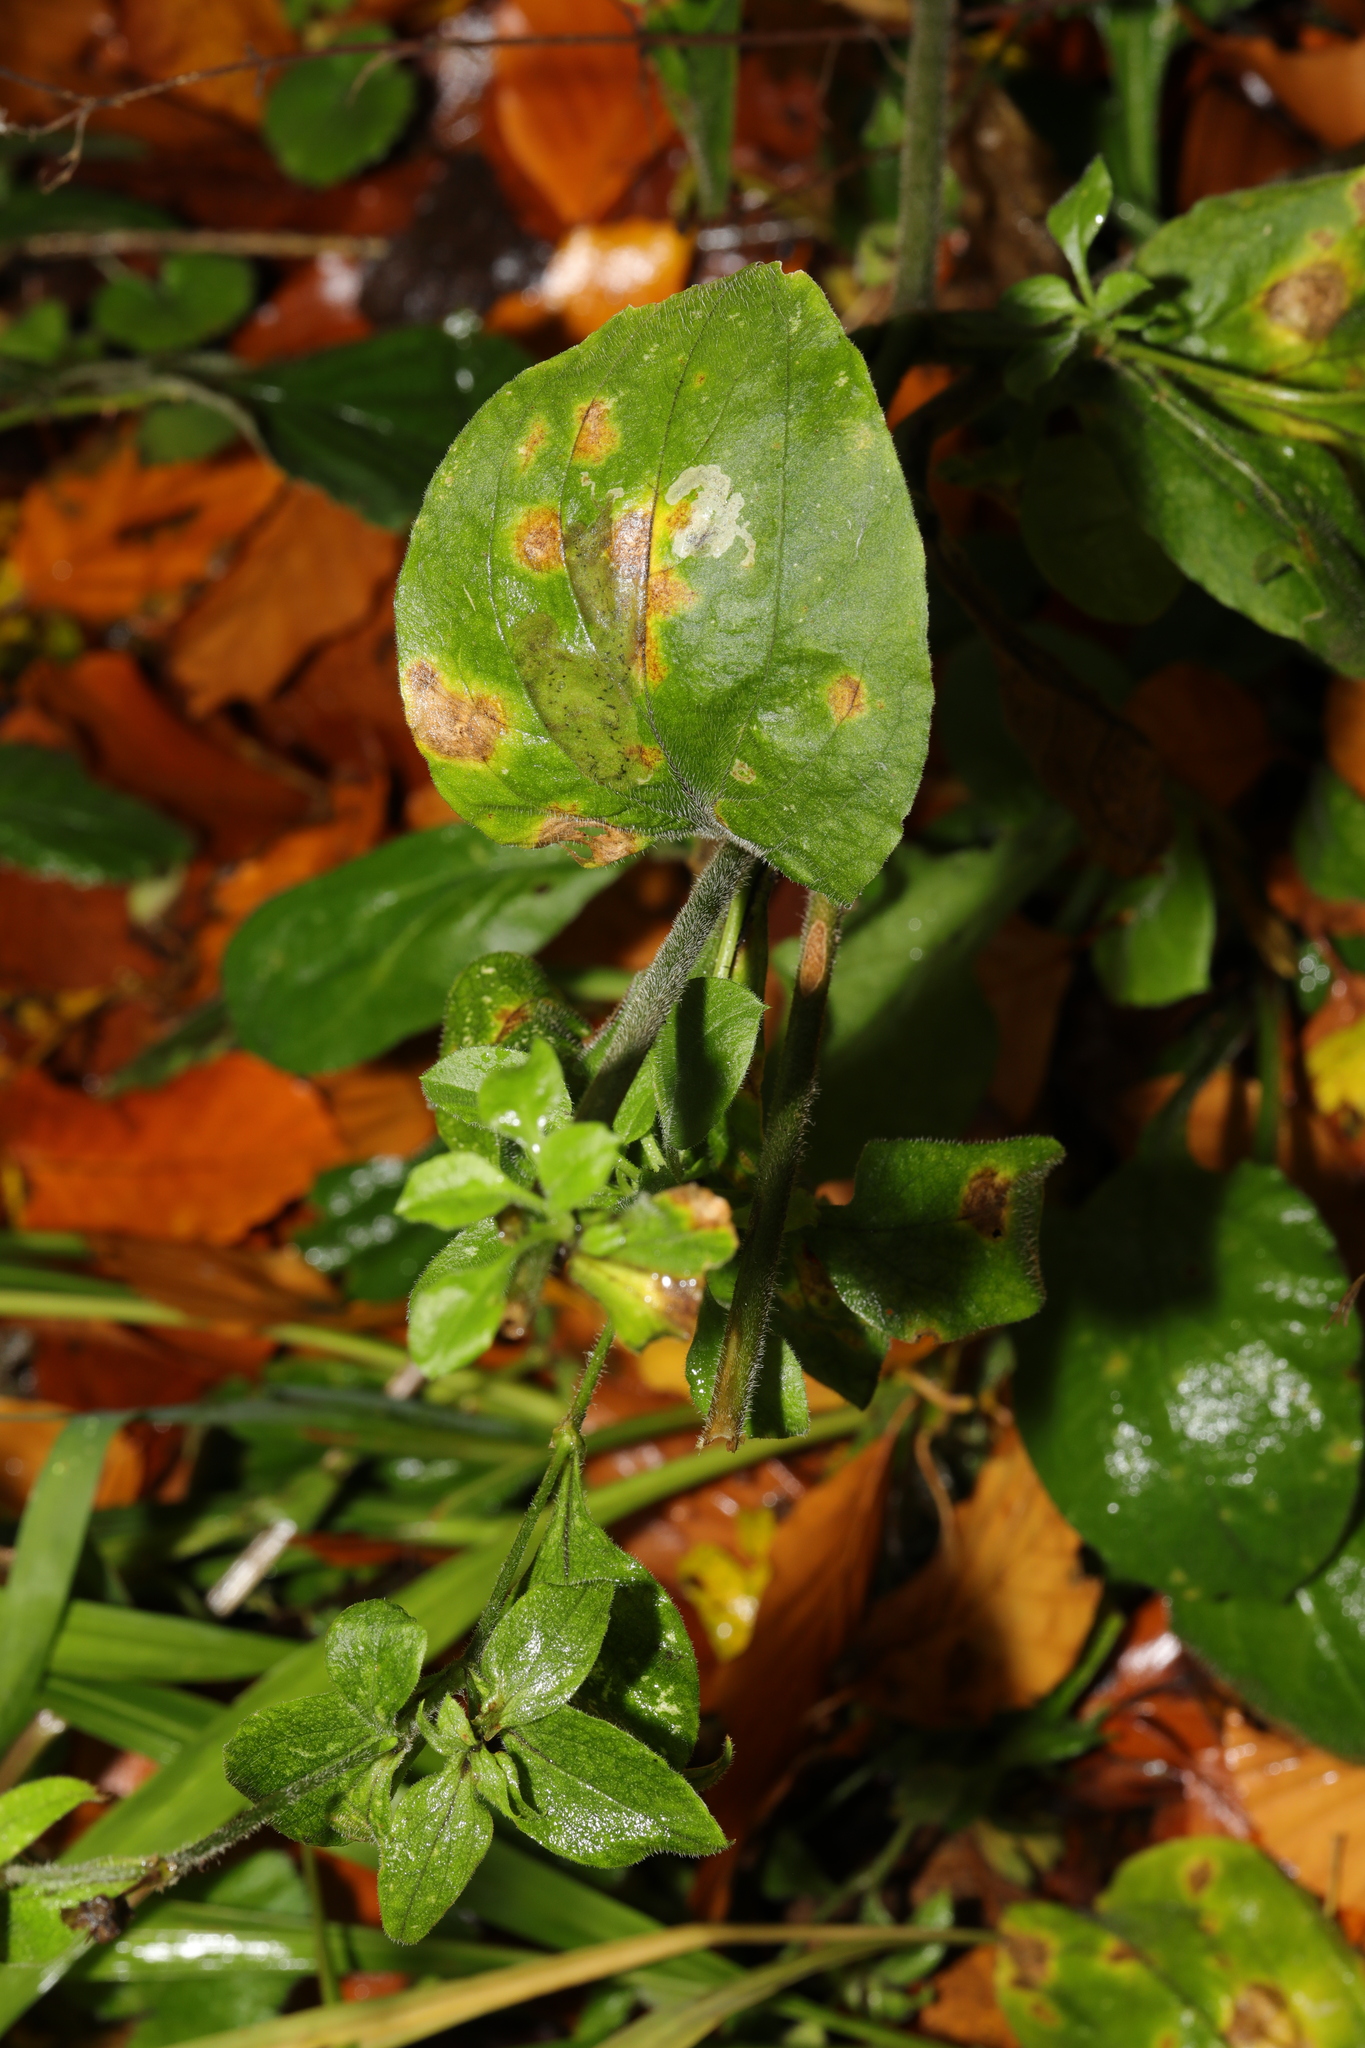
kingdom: Plantae
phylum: Tracheophyta
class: Magnoliopsida
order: Caryophyllales
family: Caryophyllaceae
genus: Silene
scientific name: Silene dioica
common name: Red campion
